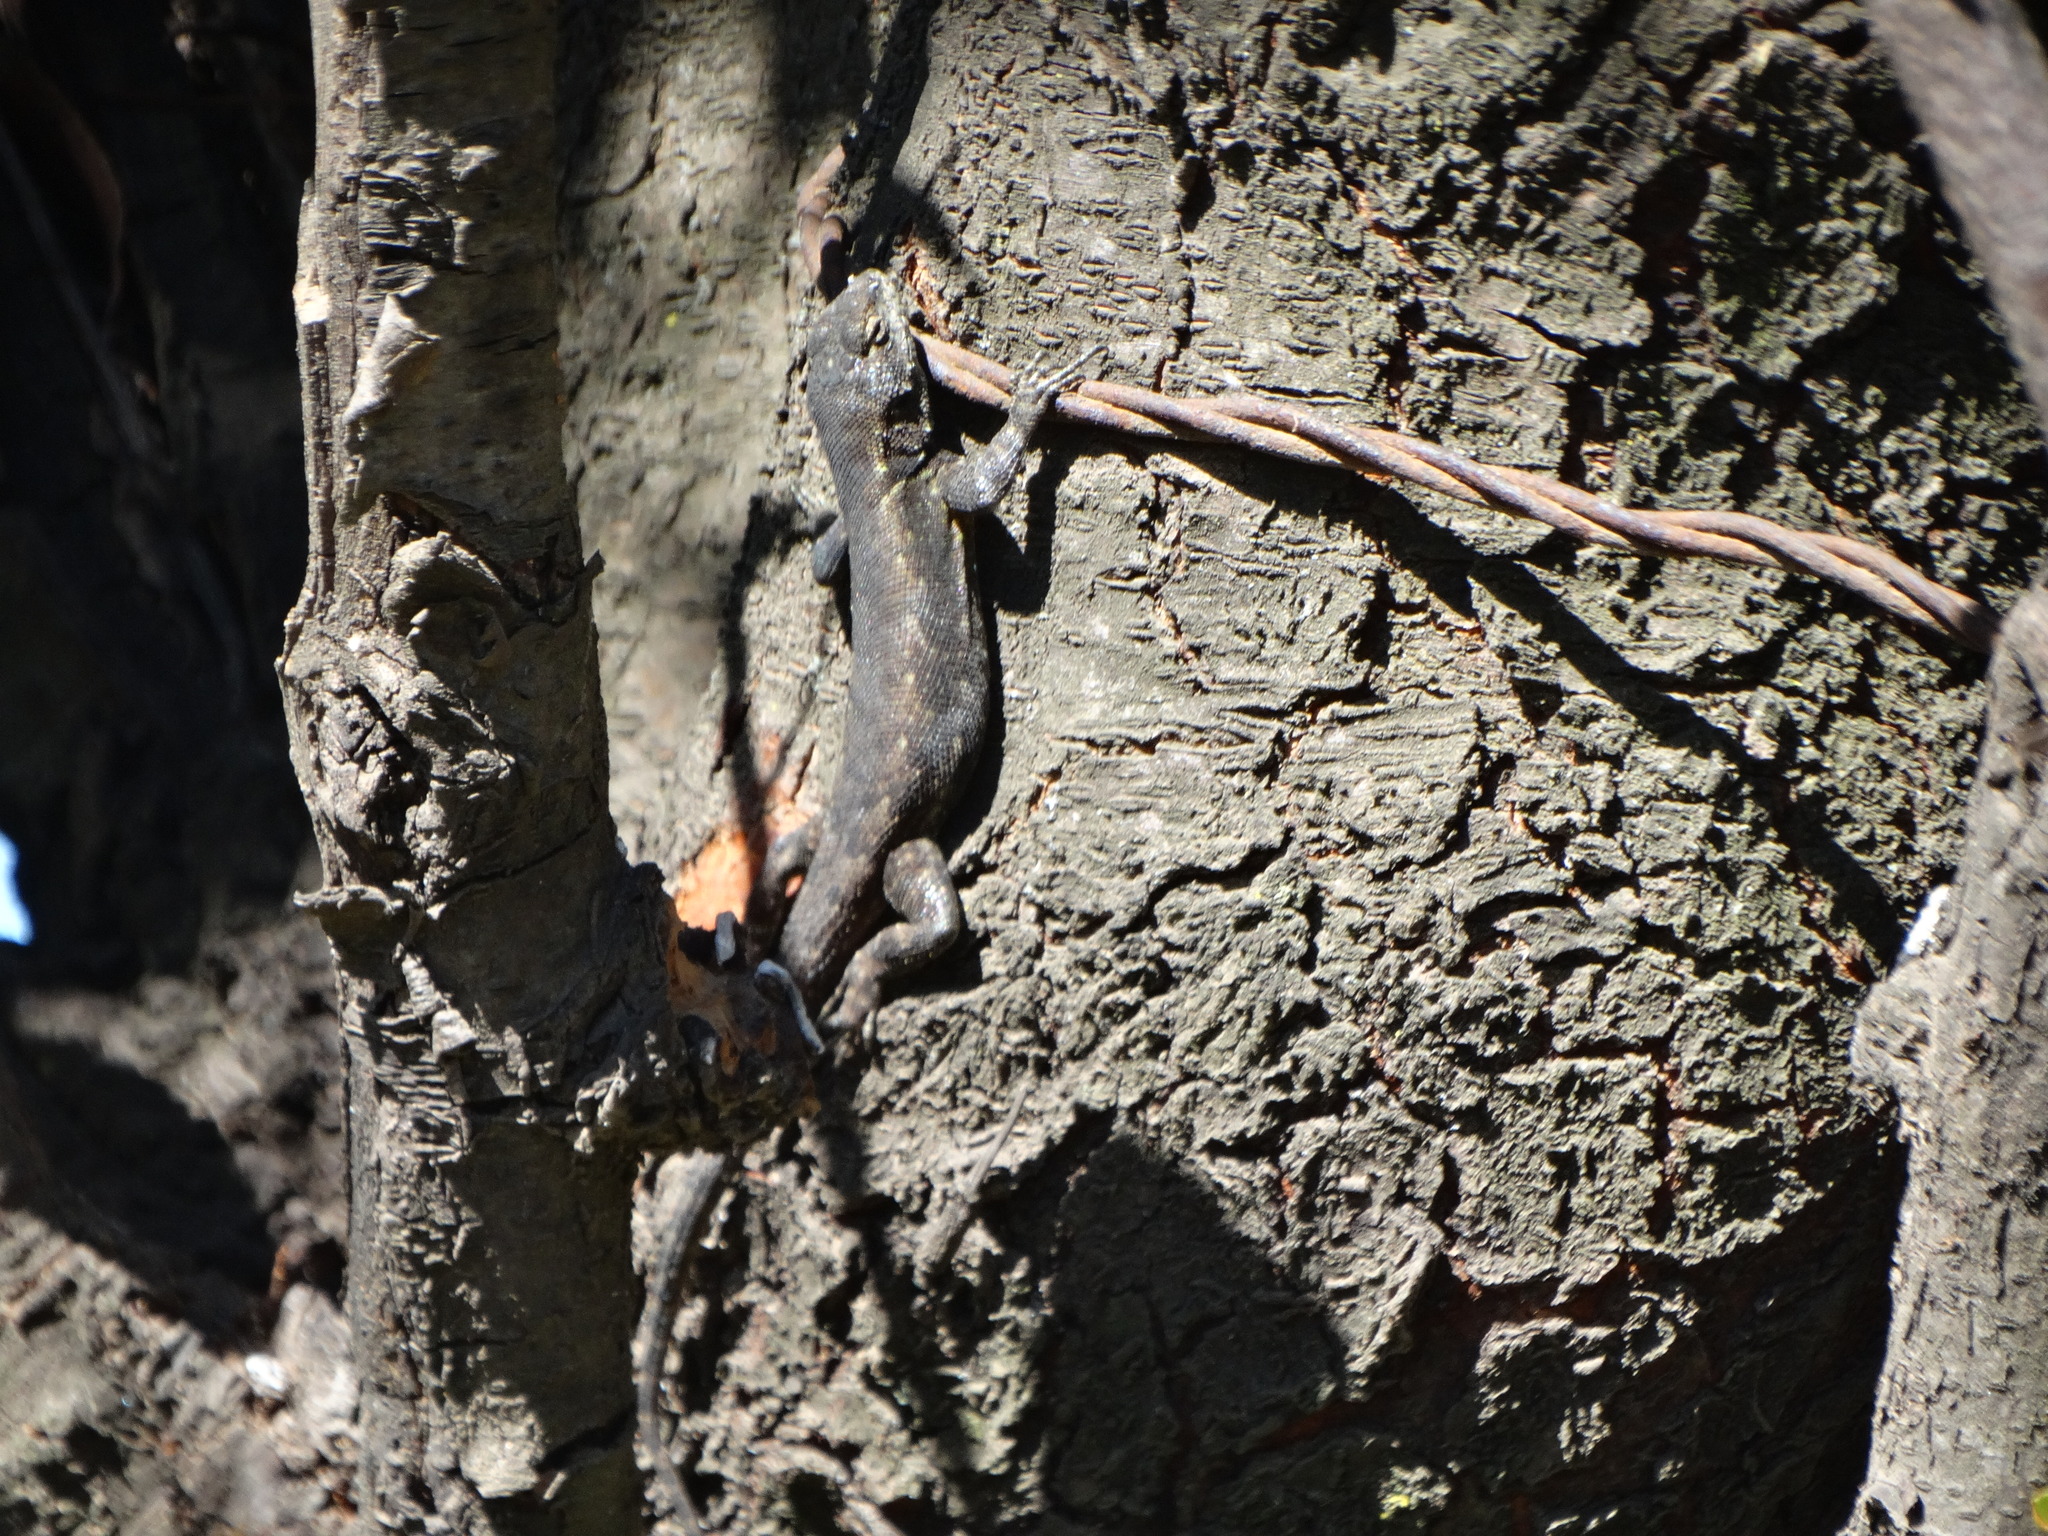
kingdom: Animalia
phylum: Chordata
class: Squamata
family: Phrynosomatidae
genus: Sceloporus
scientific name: Sceloporus grammicus
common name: Mesquite lizard
